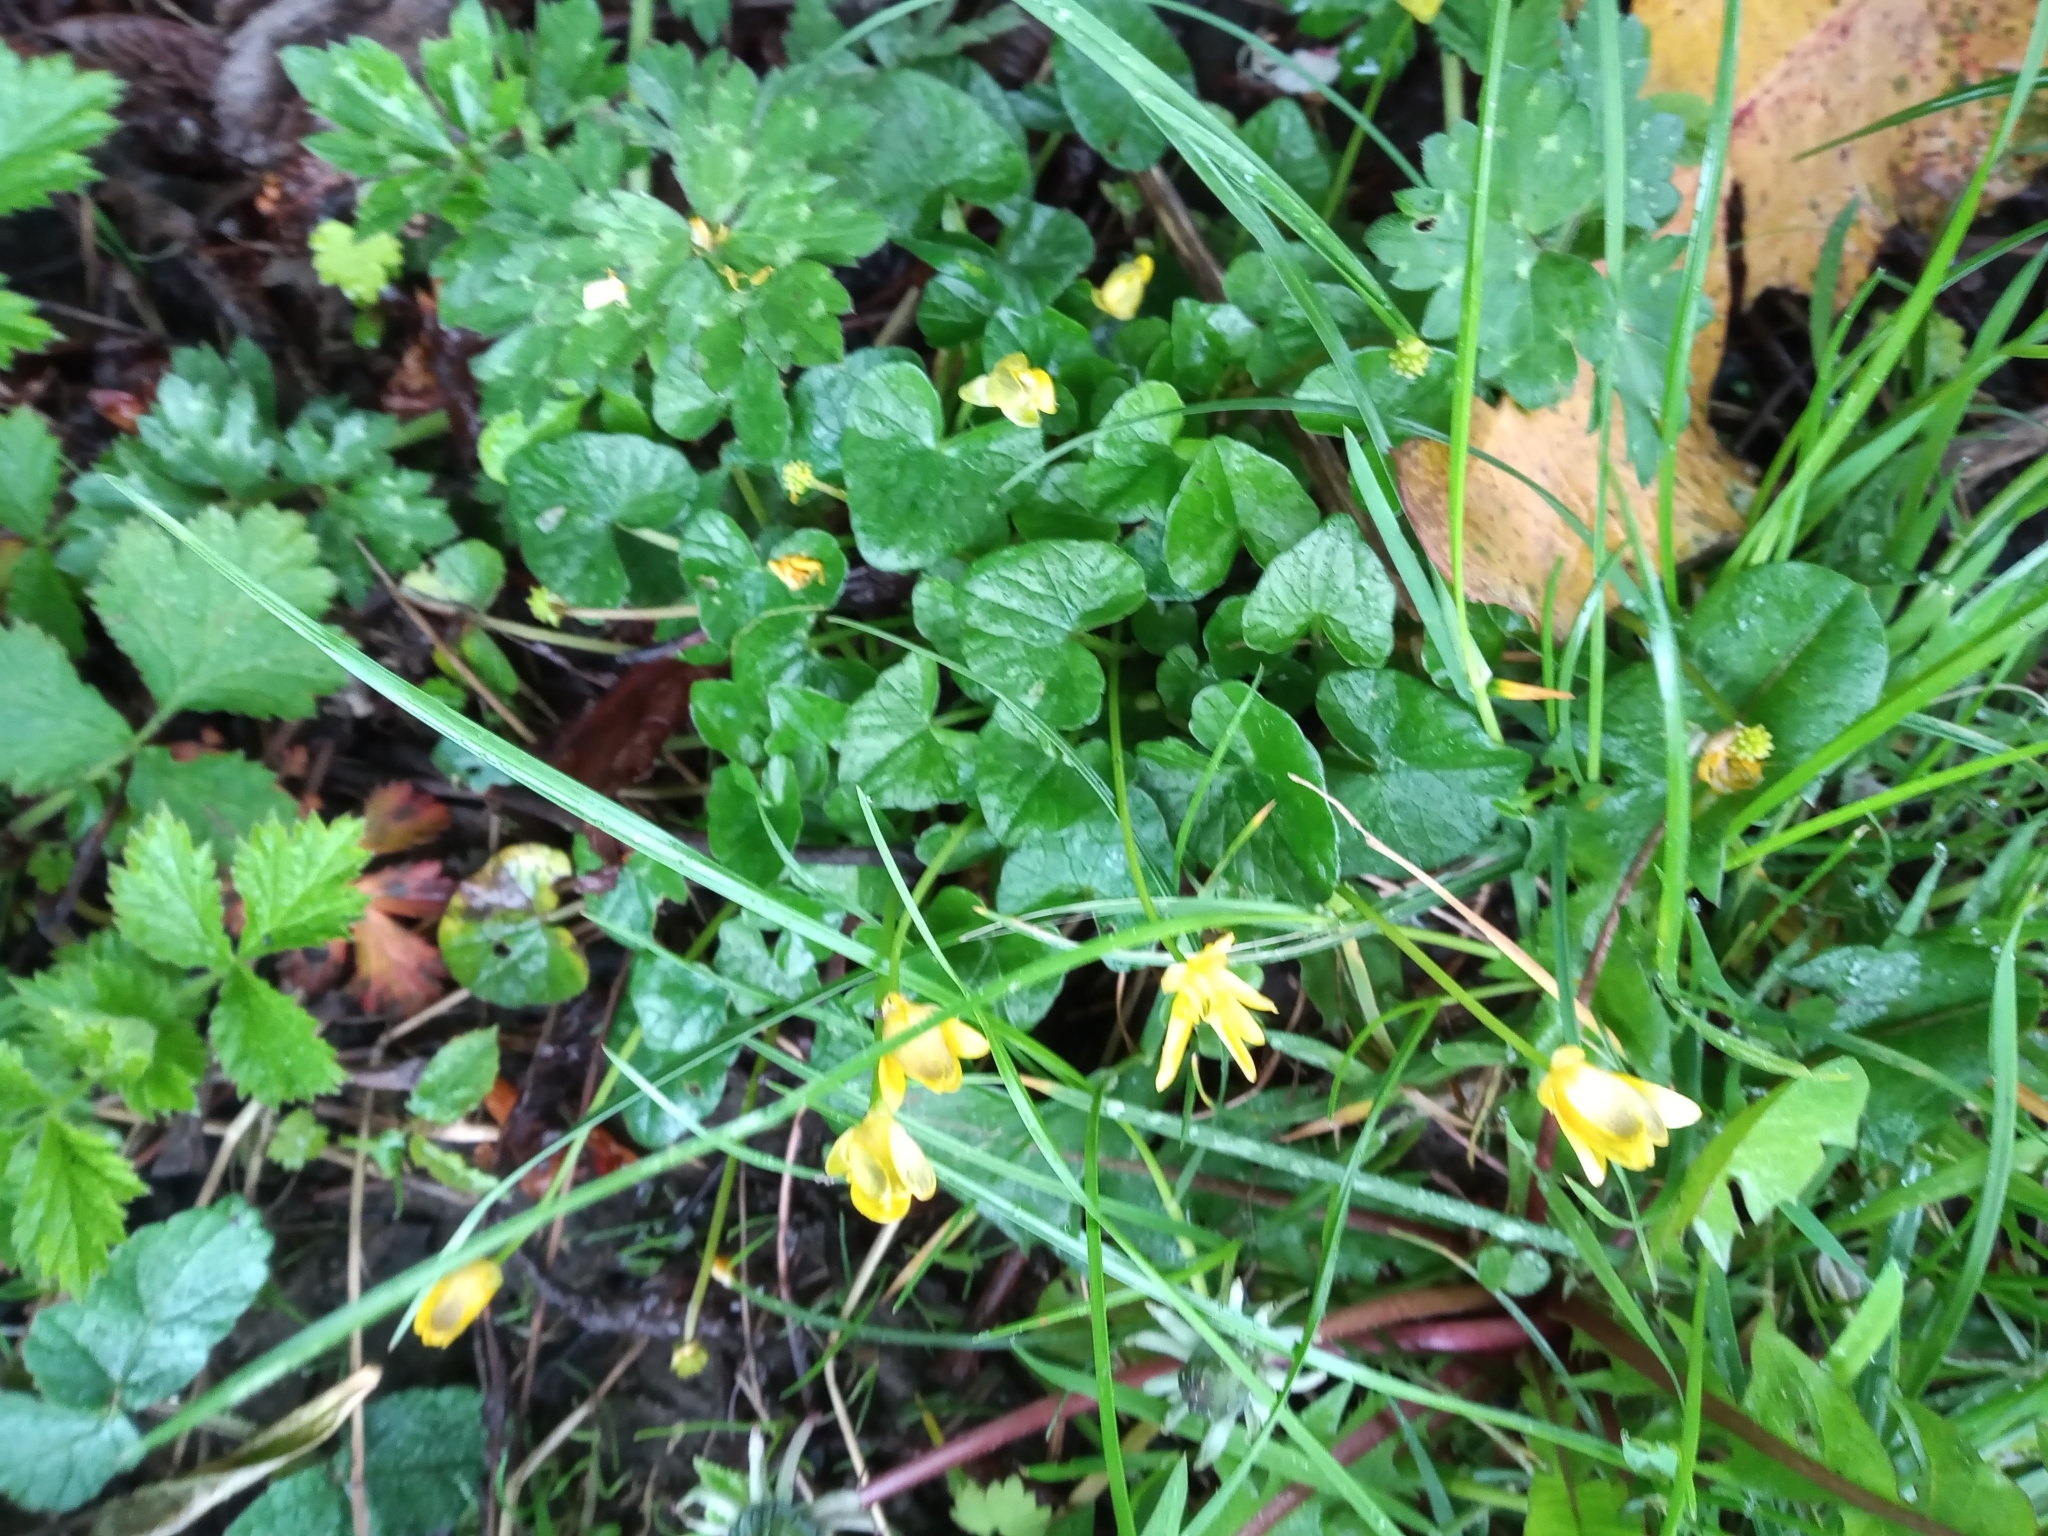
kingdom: Plantae
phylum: Tracheophyta
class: Magnoliopsida
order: Ranunculales
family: Ranunculaceae
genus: Ficaria
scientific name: Ficaria verna
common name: Lesser celandine
